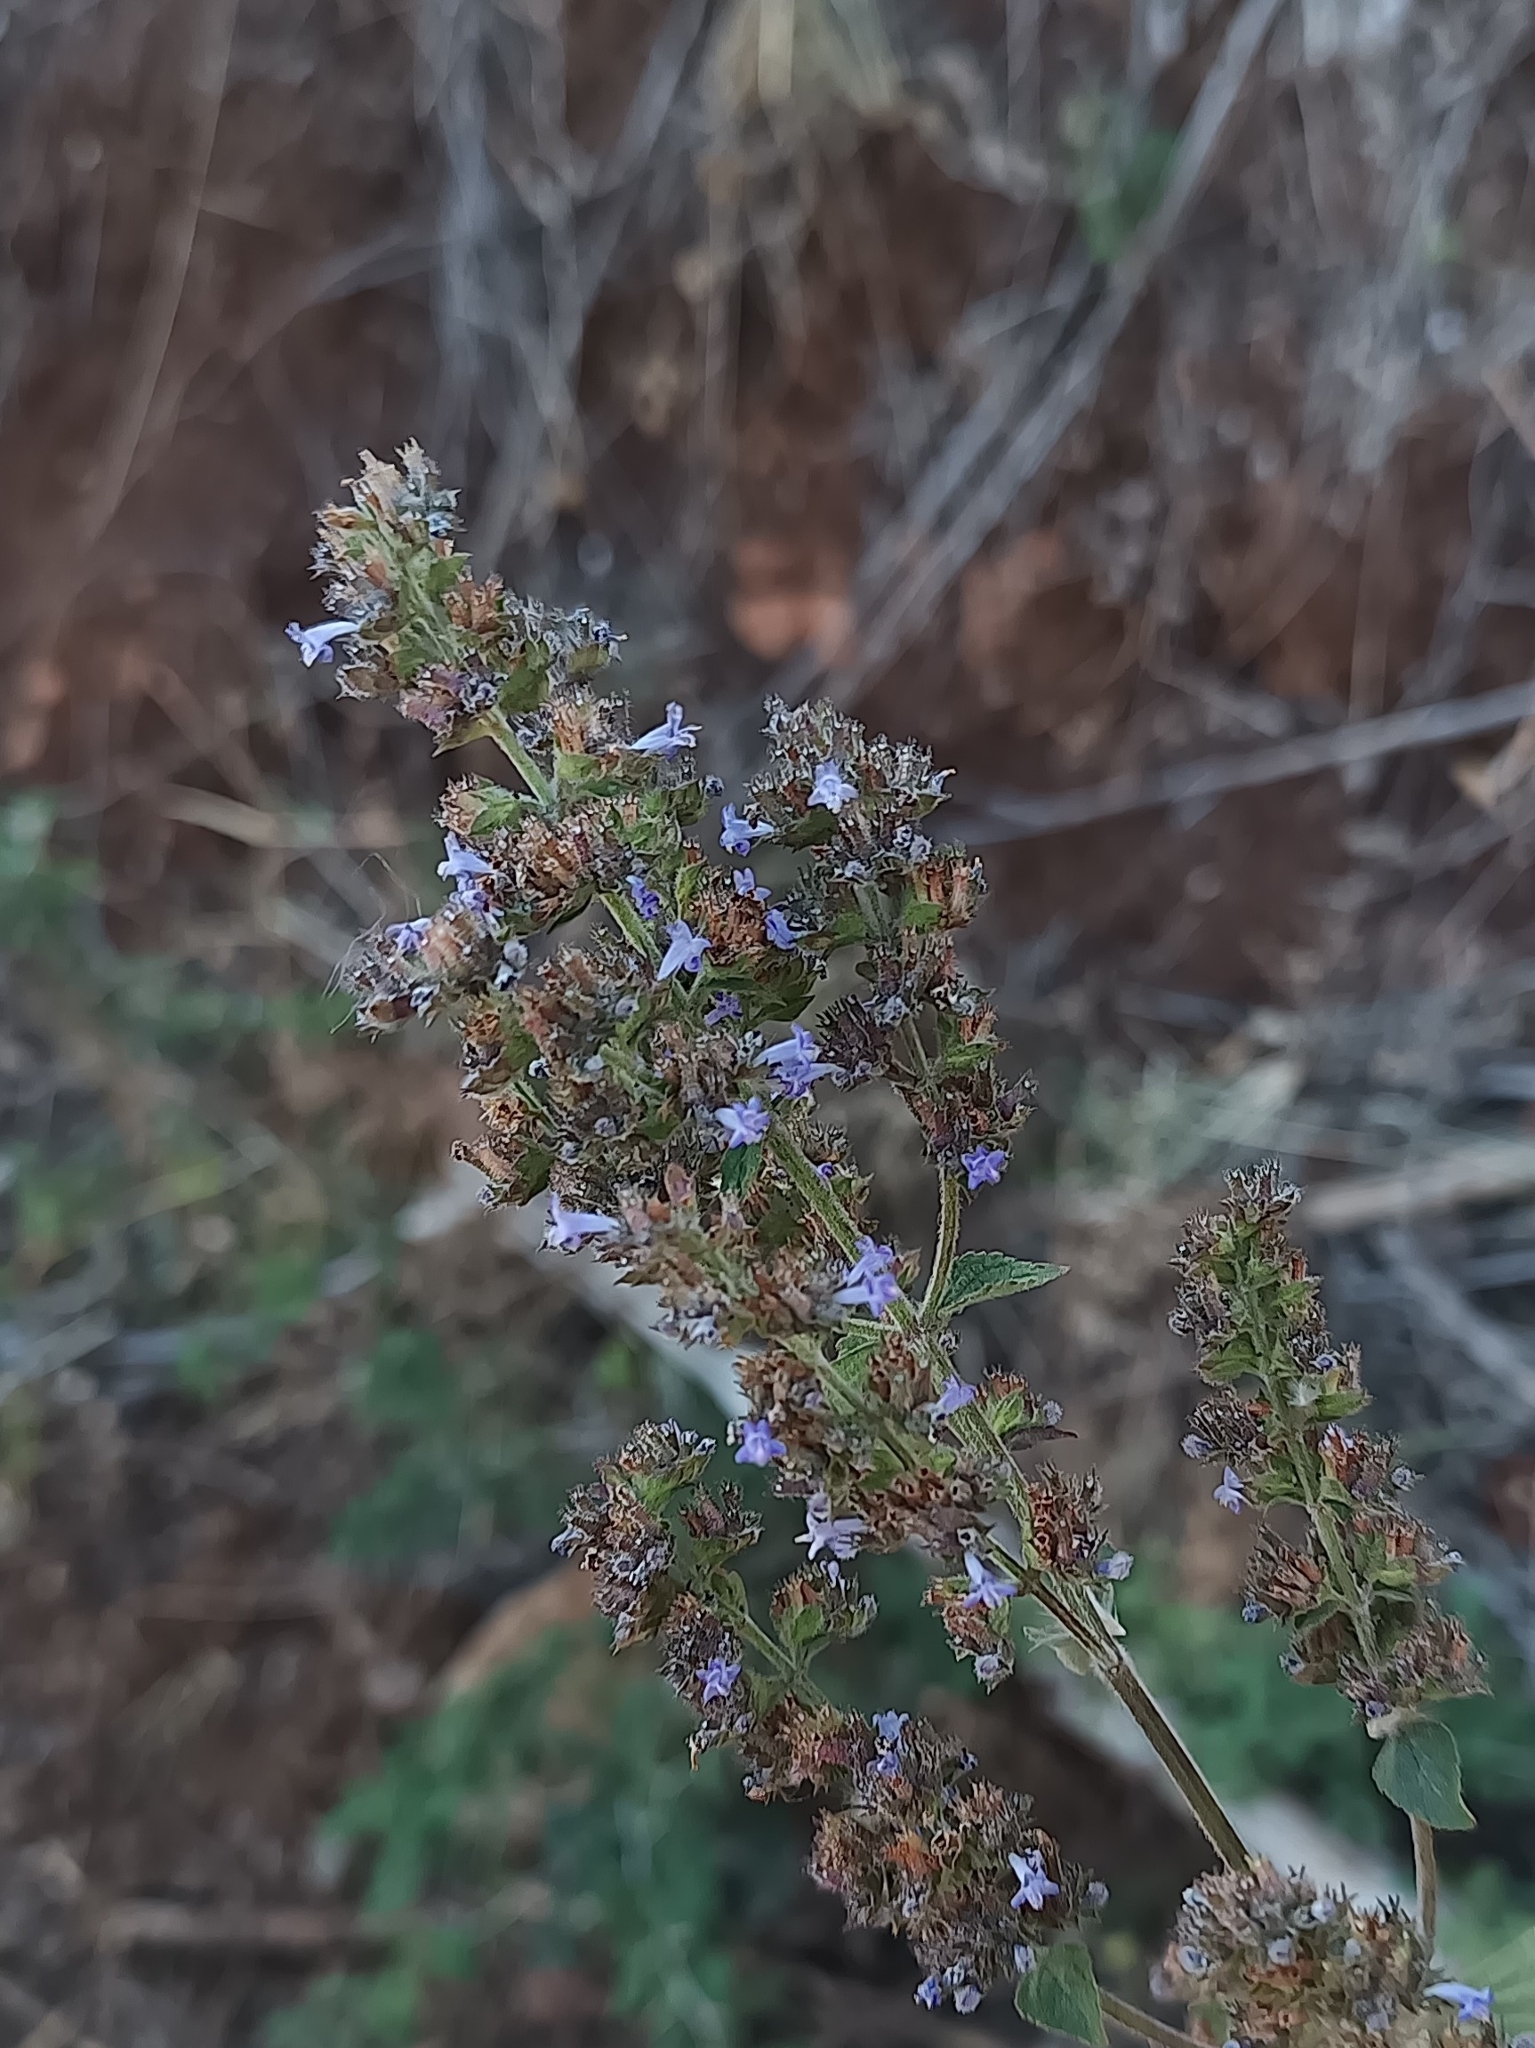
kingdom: Plantae
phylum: Tracheophyta
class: Magnoliopsida
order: Lamiales
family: Lamiaceae
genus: Cantinoa
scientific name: Cantinoa mutabilis
